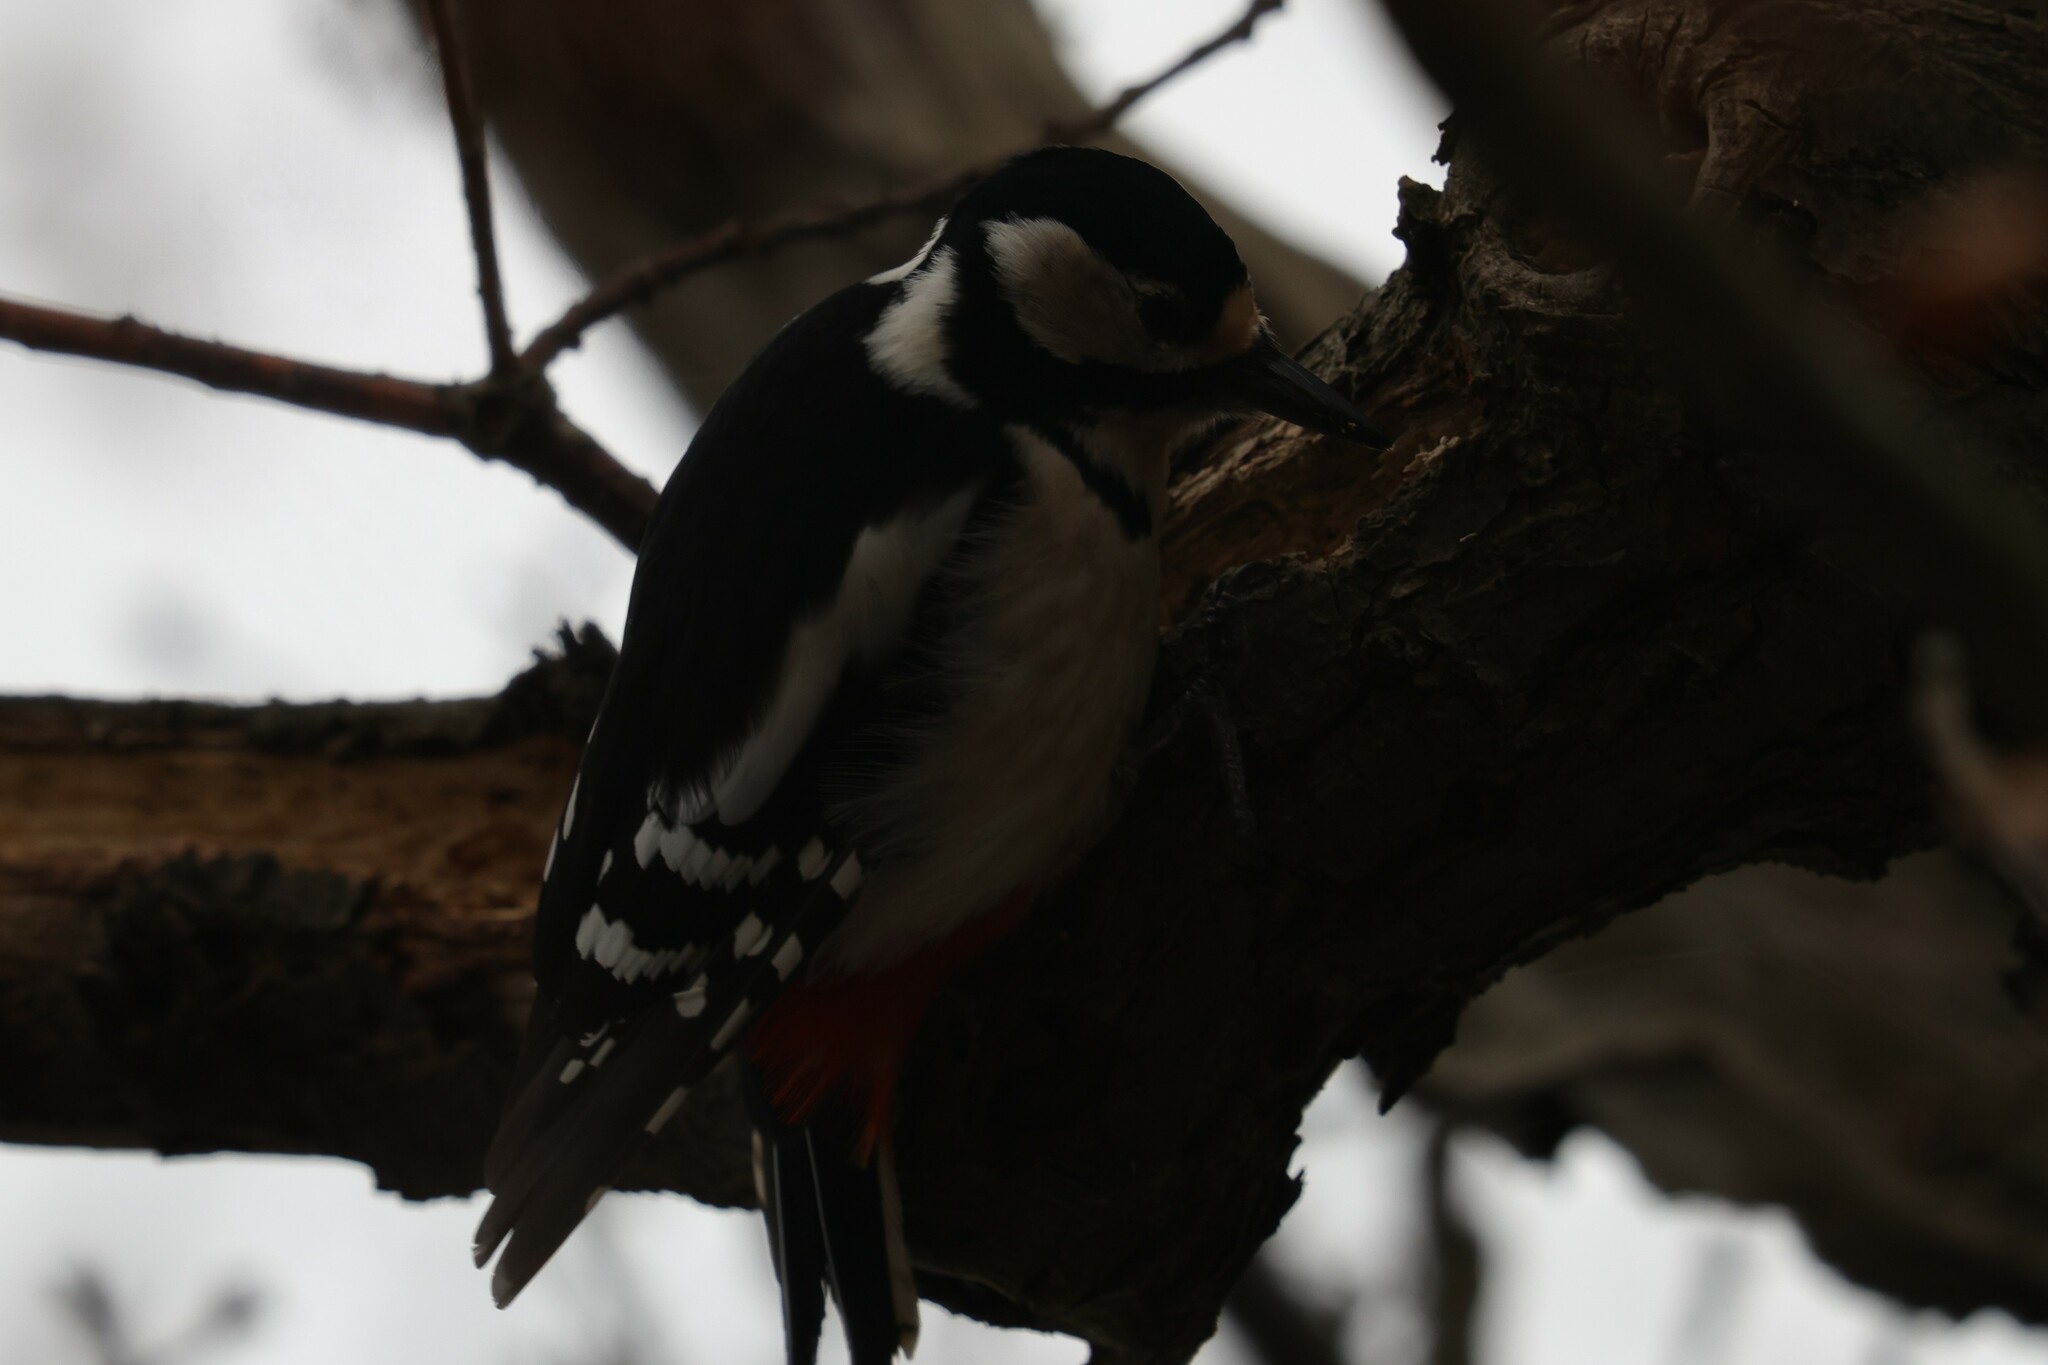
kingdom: Animalia
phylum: Chordata
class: Aves
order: Piciformes
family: Picidae
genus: Dendrocopos
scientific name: Dendrocopos major
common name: Great spotted woodpecker
